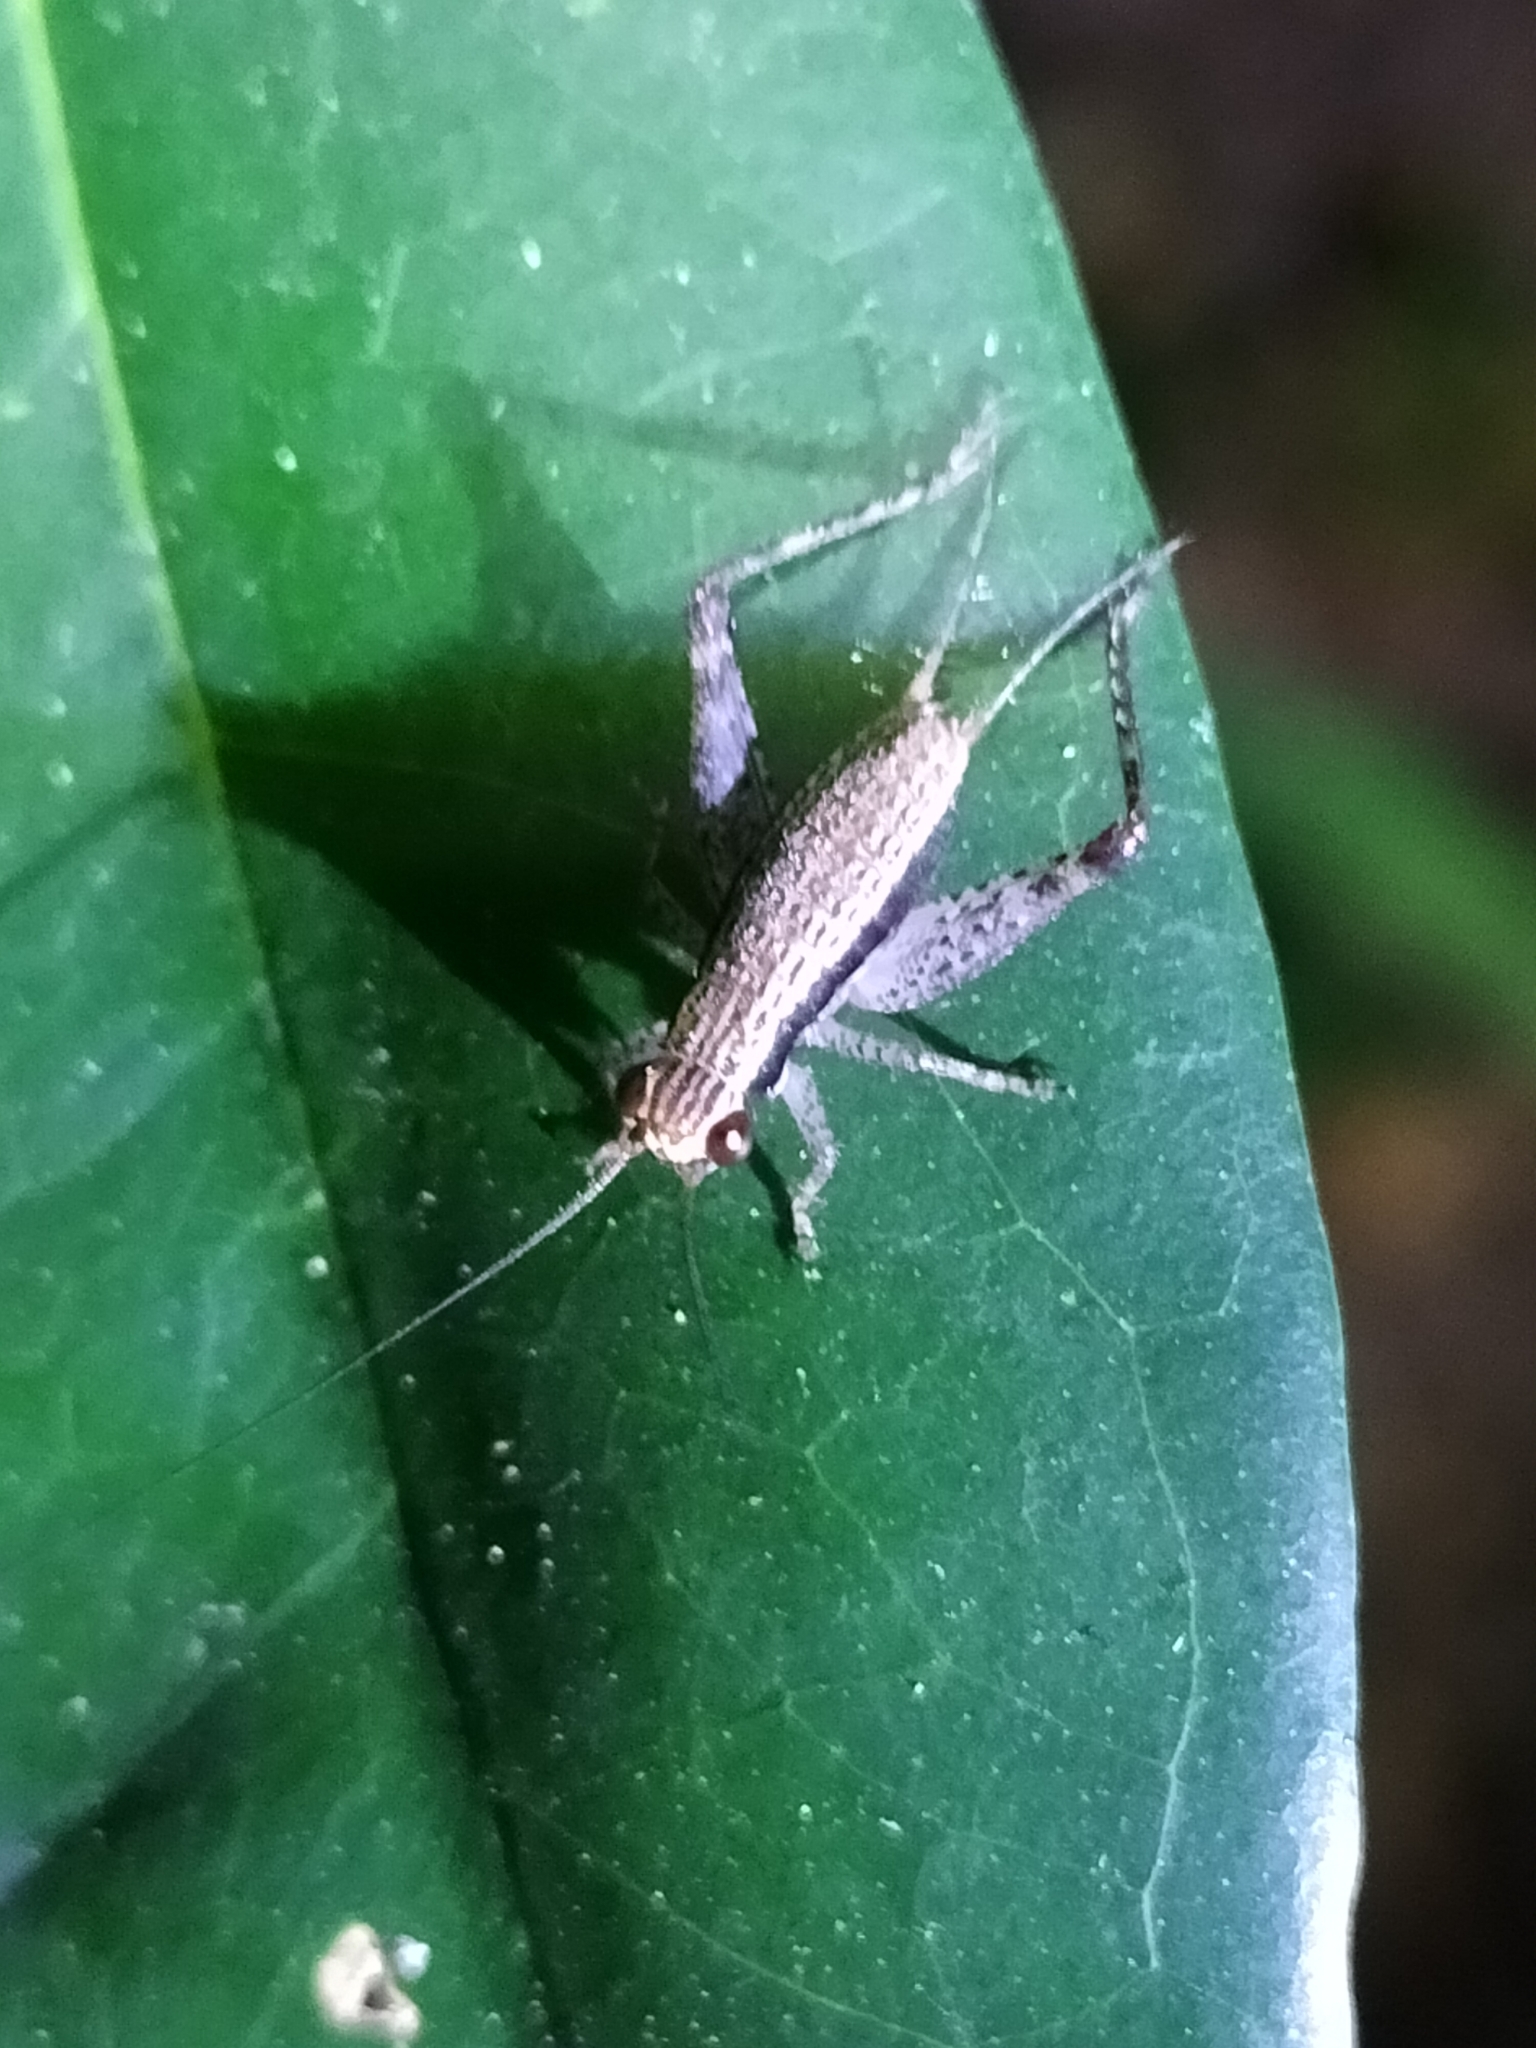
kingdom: Animalia
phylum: Arthropoda
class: Insecta
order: Orthoptera
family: Gryllidae
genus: Cardiodactylus
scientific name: Cardiodactylus novaeguineae
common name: Sad cricket
